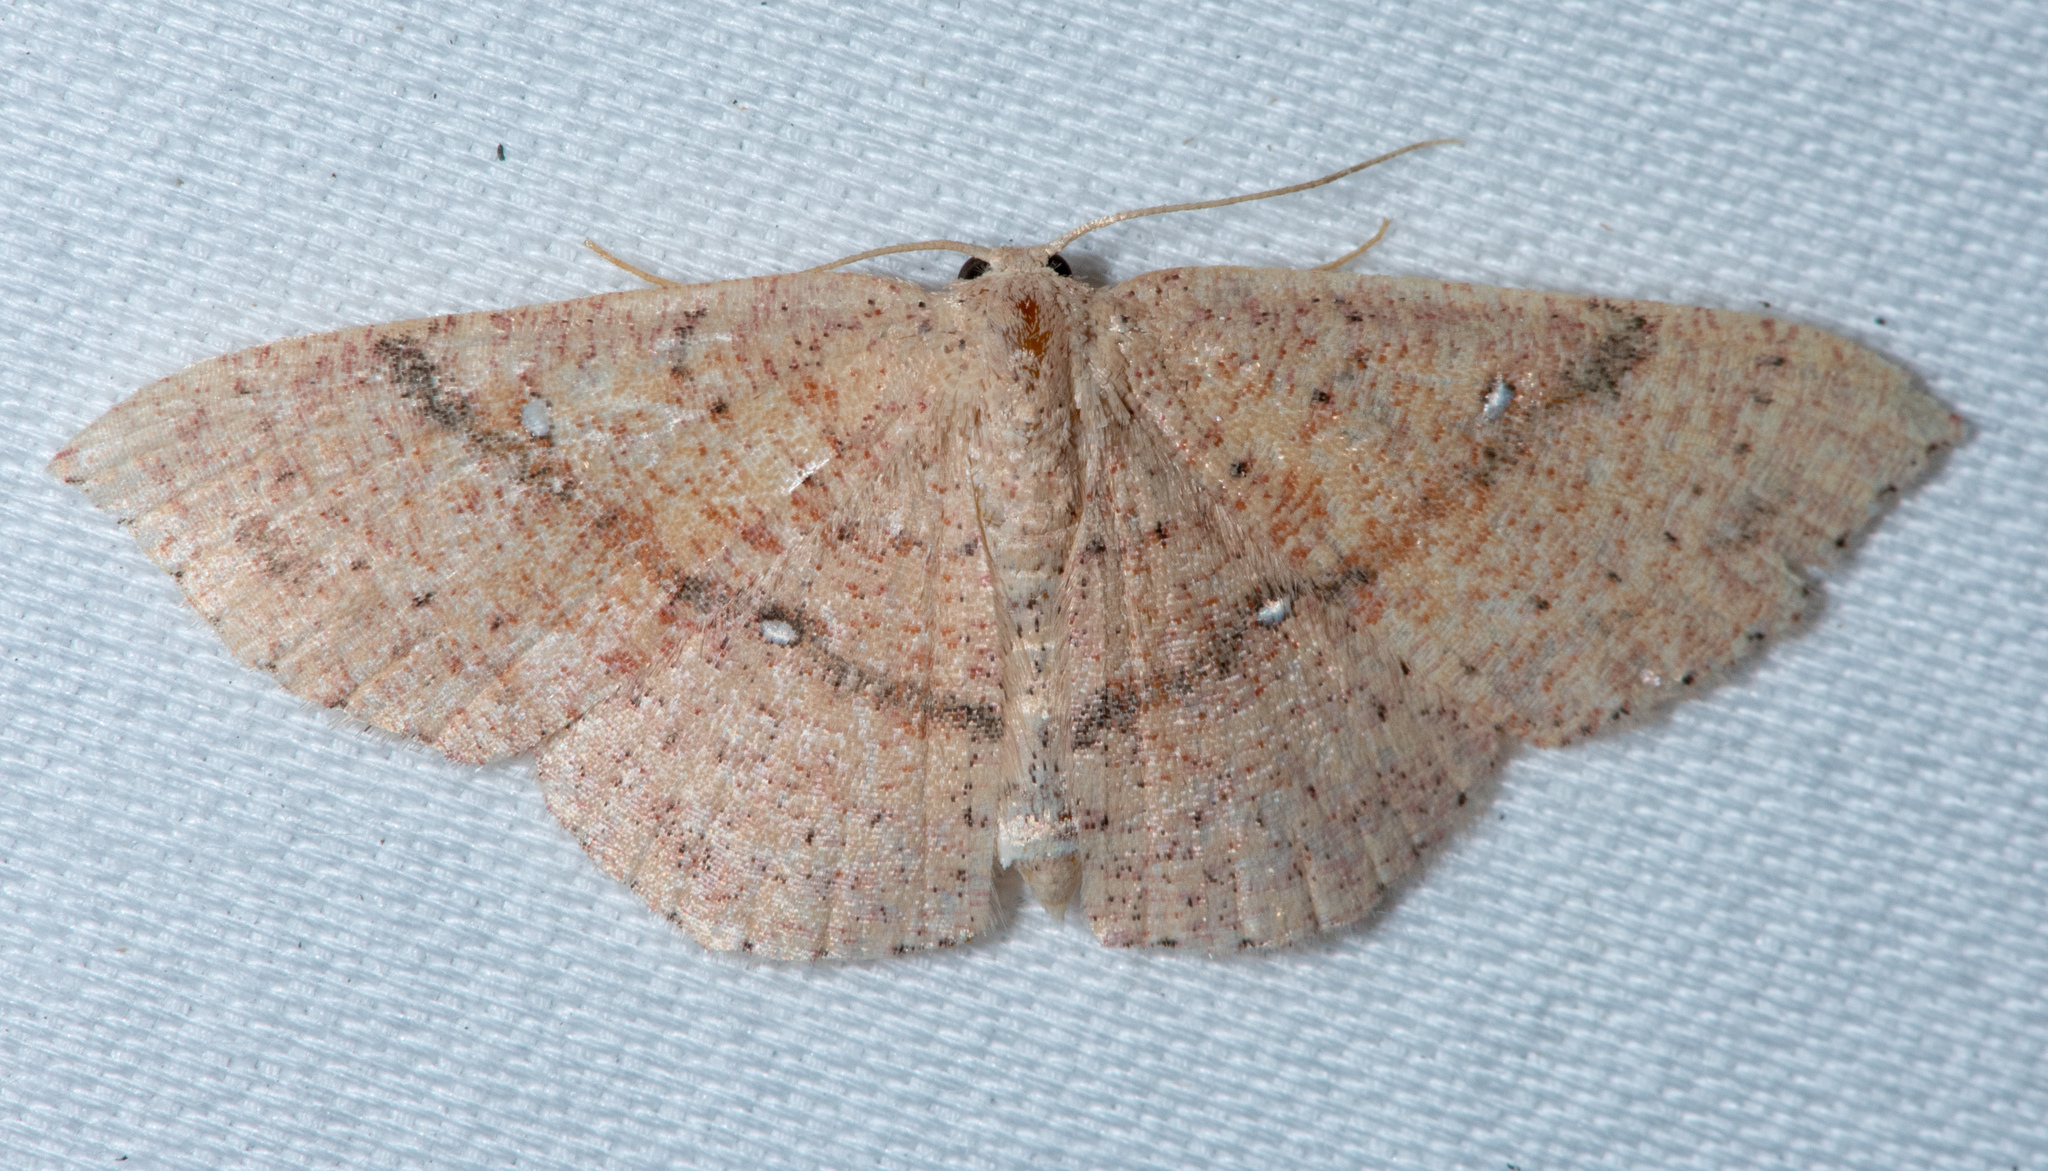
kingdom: Animalia
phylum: Arthropoda
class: Insecta
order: Lepidoptera
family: Geometridae
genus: Cyclophora
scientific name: Cyclophora dataria
